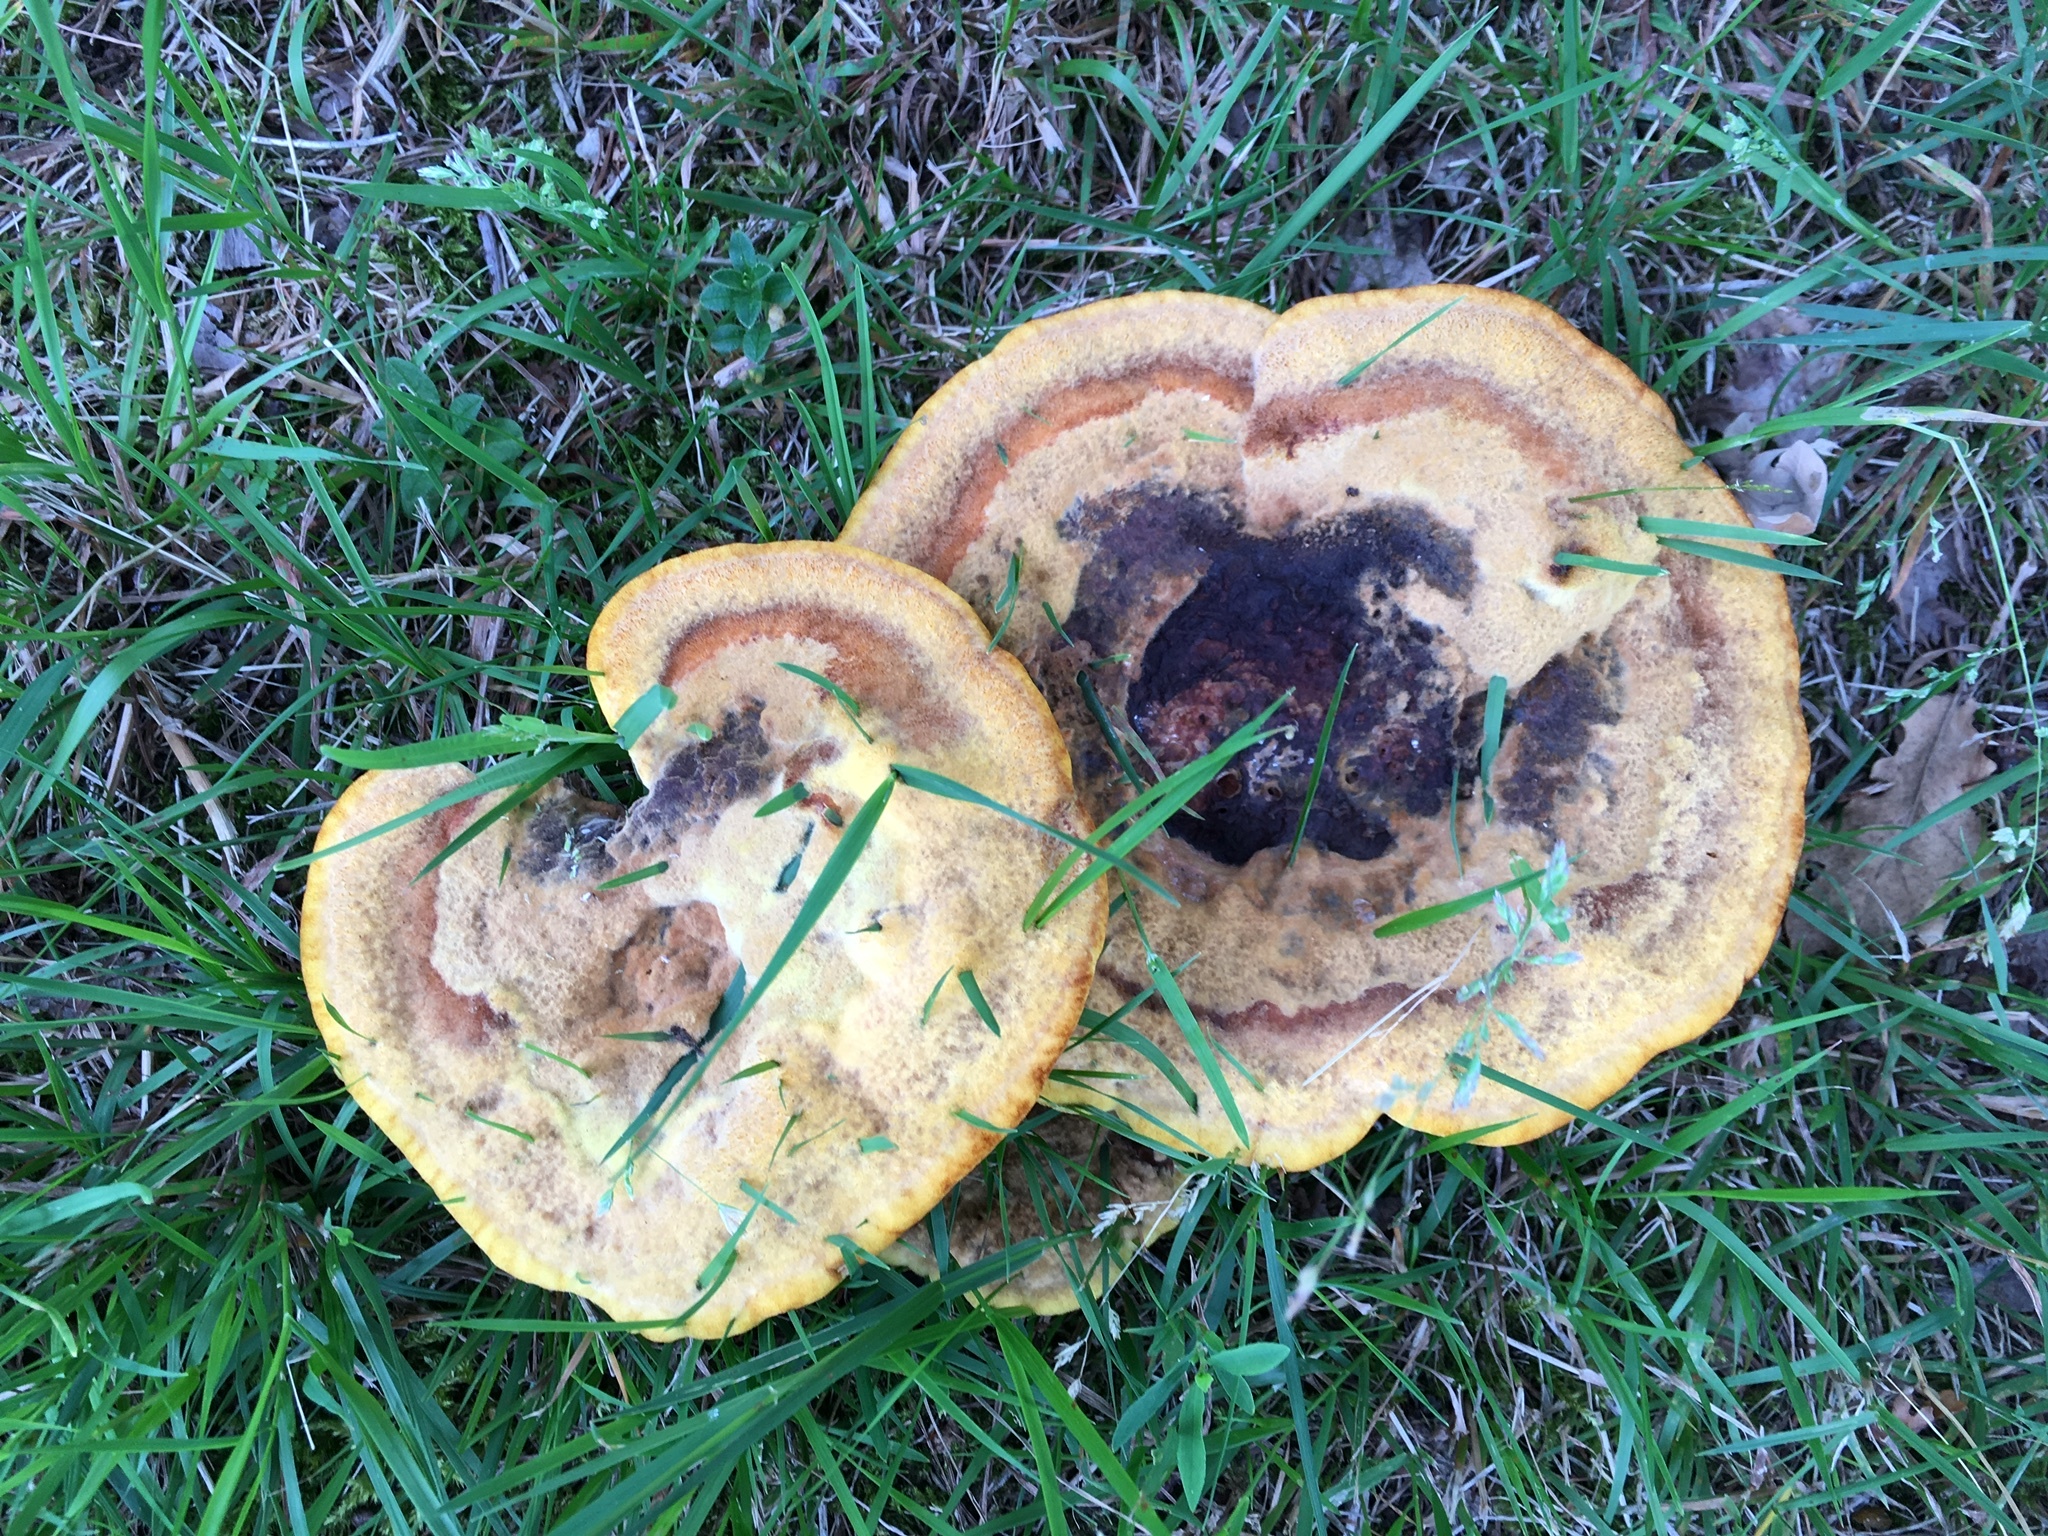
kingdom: Fungi
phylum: Basidiomycota
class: Agaricomycetes
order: Polyporales
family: Laetiporaceae
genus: Phaeolus
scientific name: Phaeolus schweinitzii
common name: Dyer's mazegill
